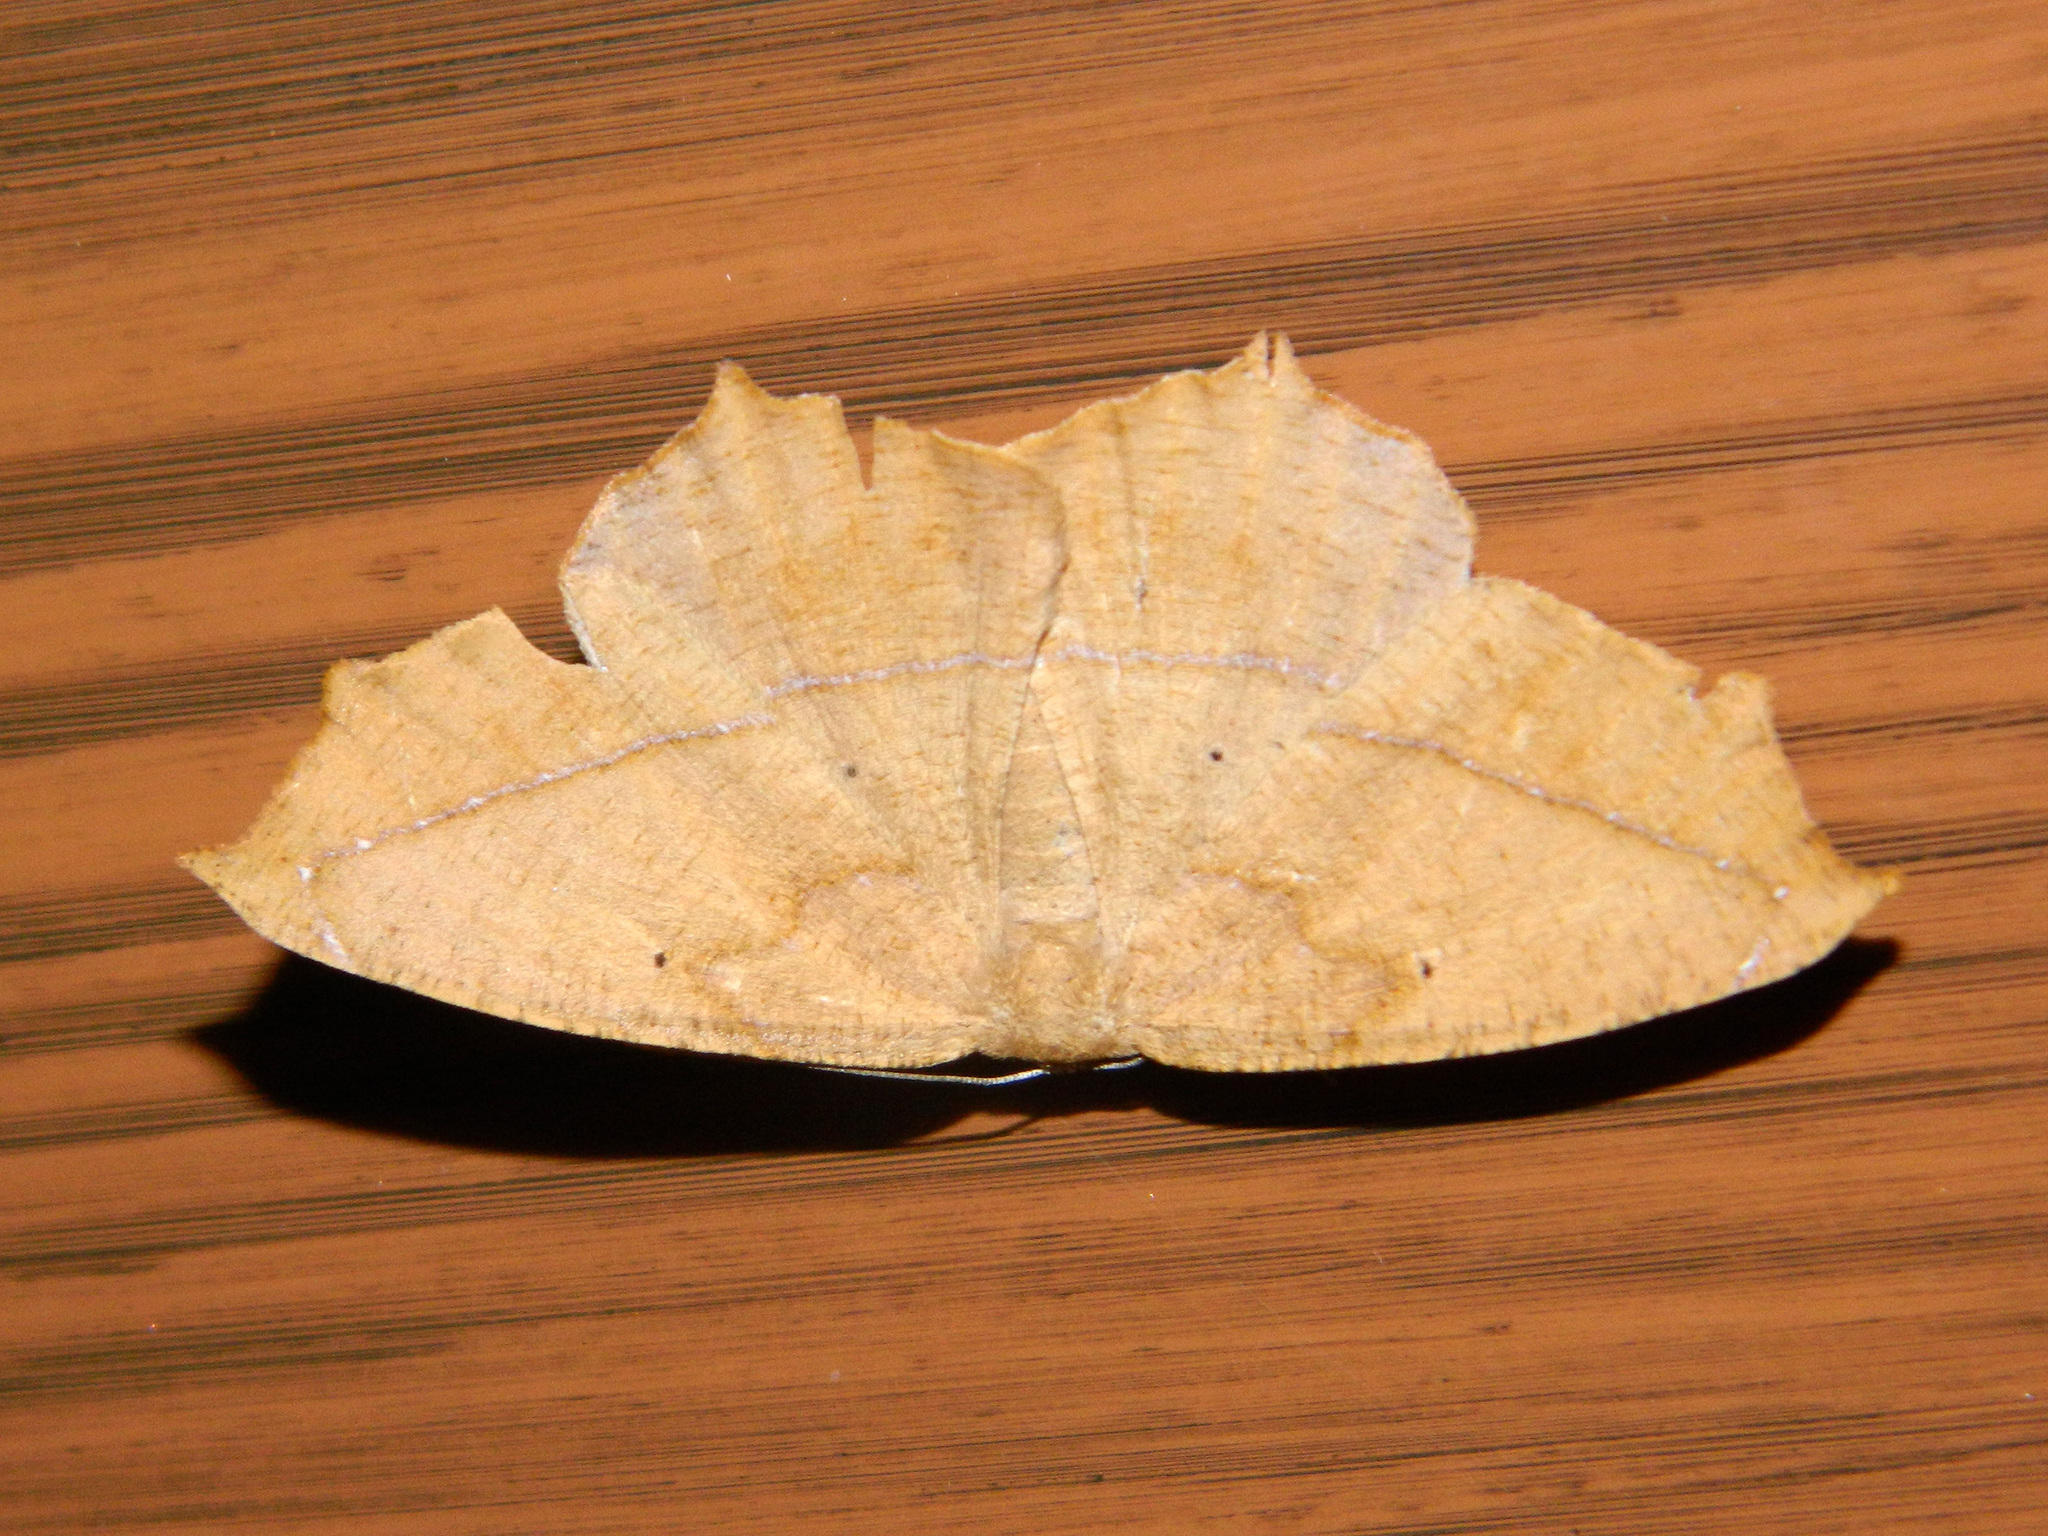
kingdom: Animalia
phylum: Arthropoda
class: Insecta
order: Lepidoptera
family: Geometridae
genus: Prochoerodes
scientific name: Prochoerodes lineola
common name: Large maple spanworm
